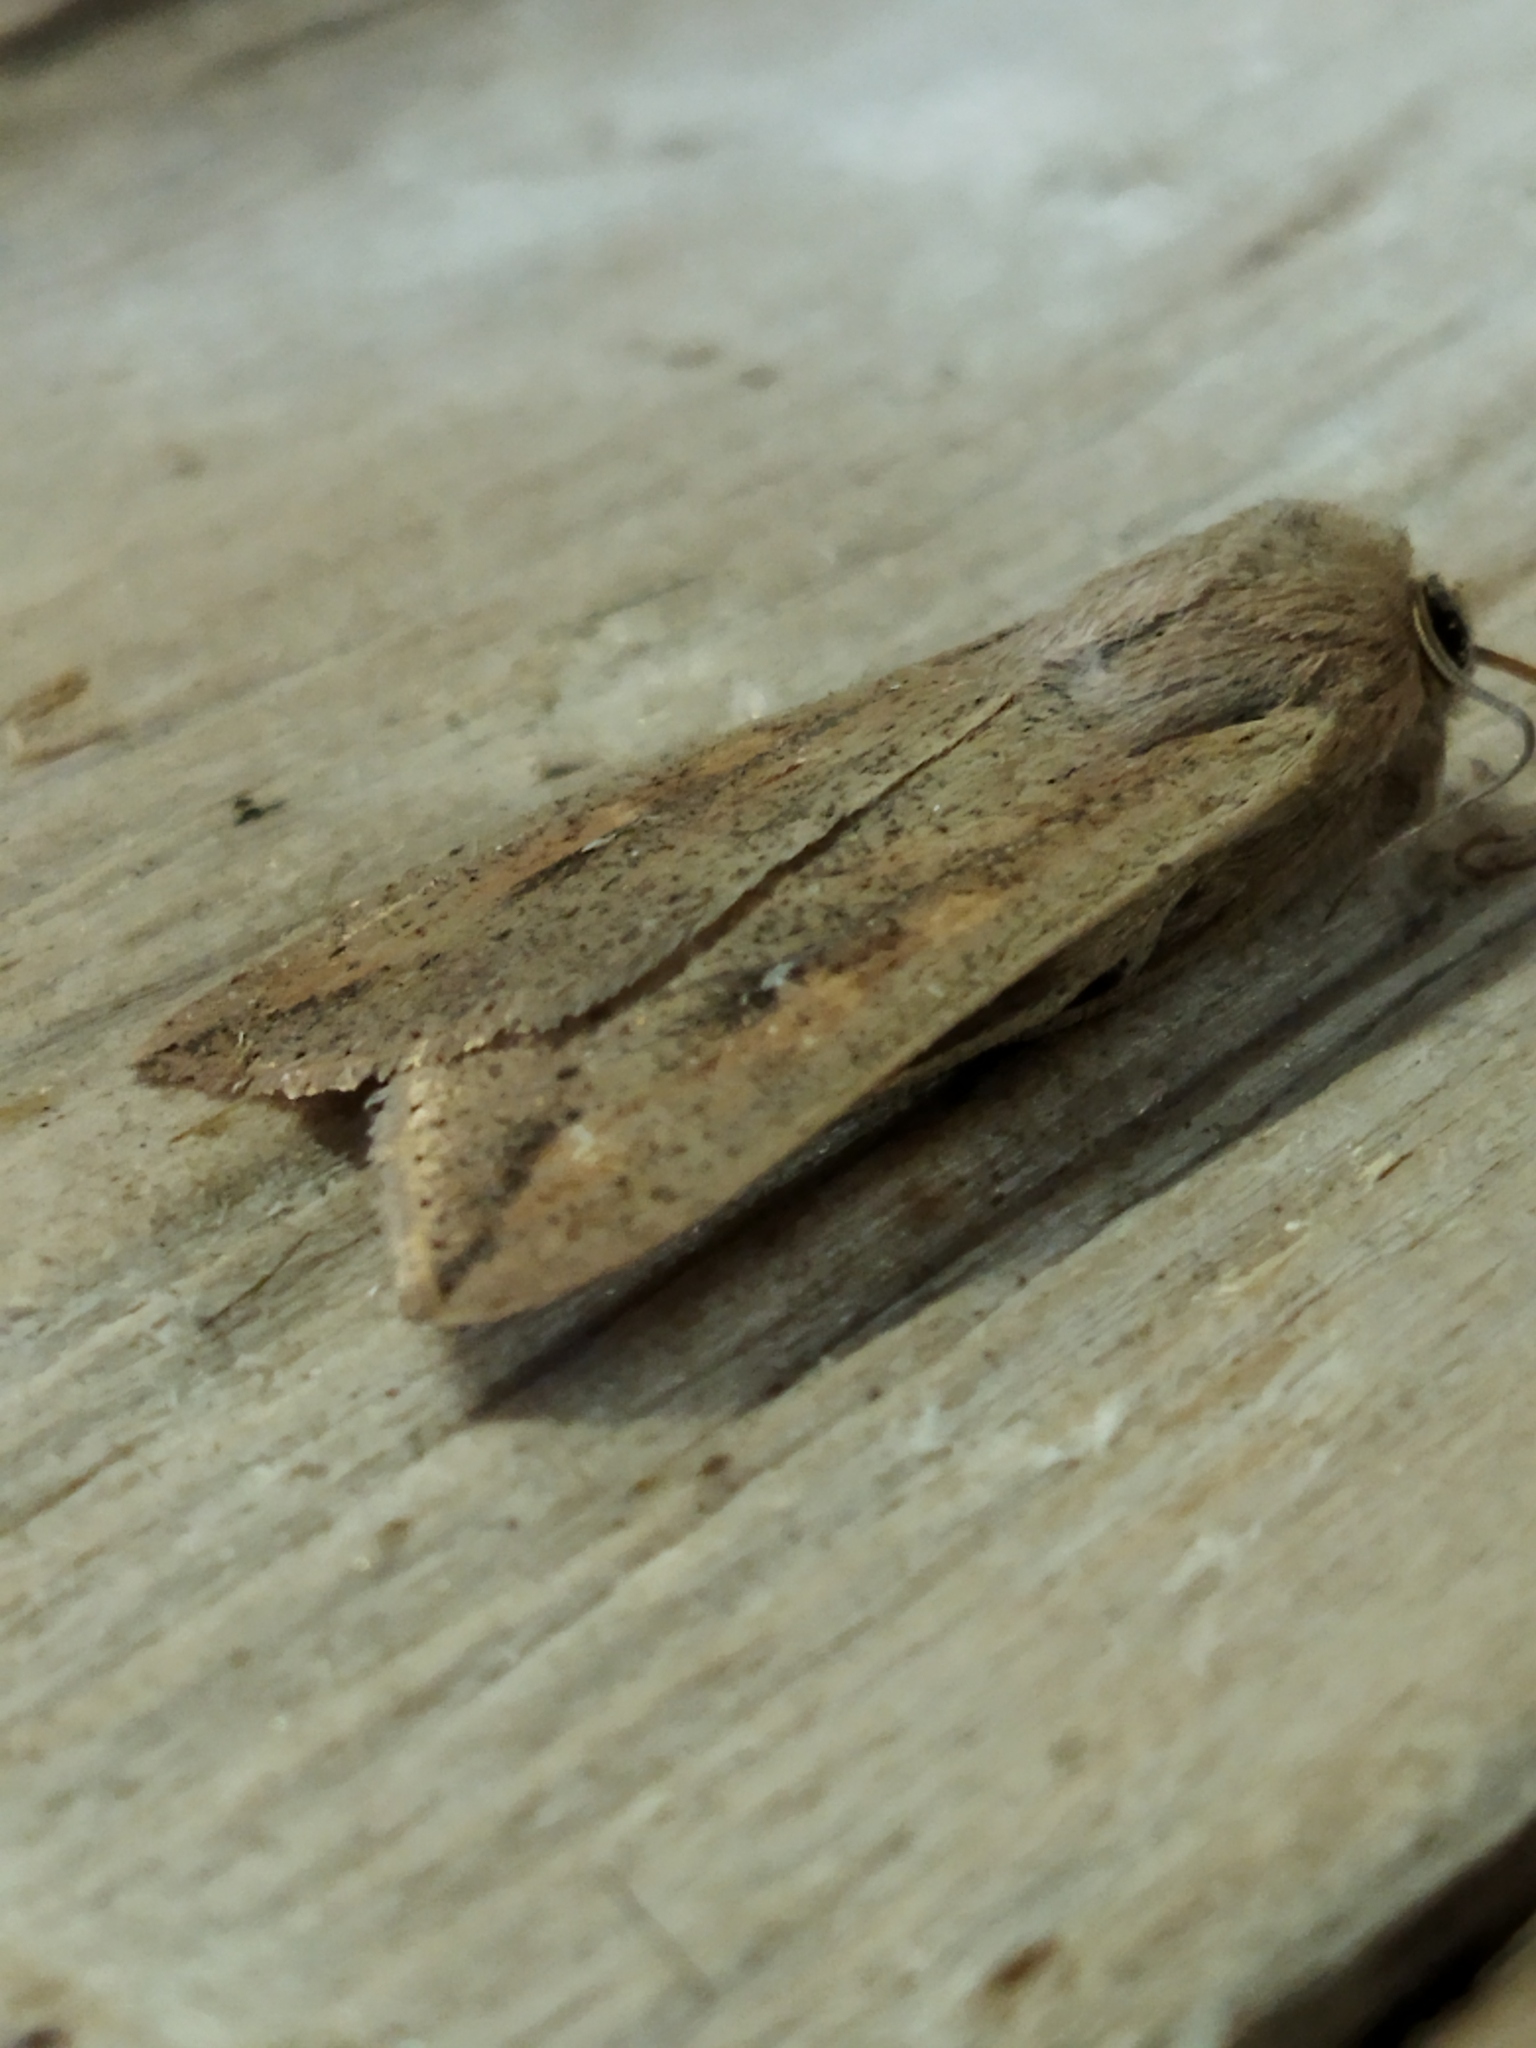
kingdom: Animalia
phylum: Arthropoda
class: Insecta
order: Lepidoptera
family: Noctuidae
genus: Mythimna
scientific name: Mythimna unipuncta
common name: White-speck
